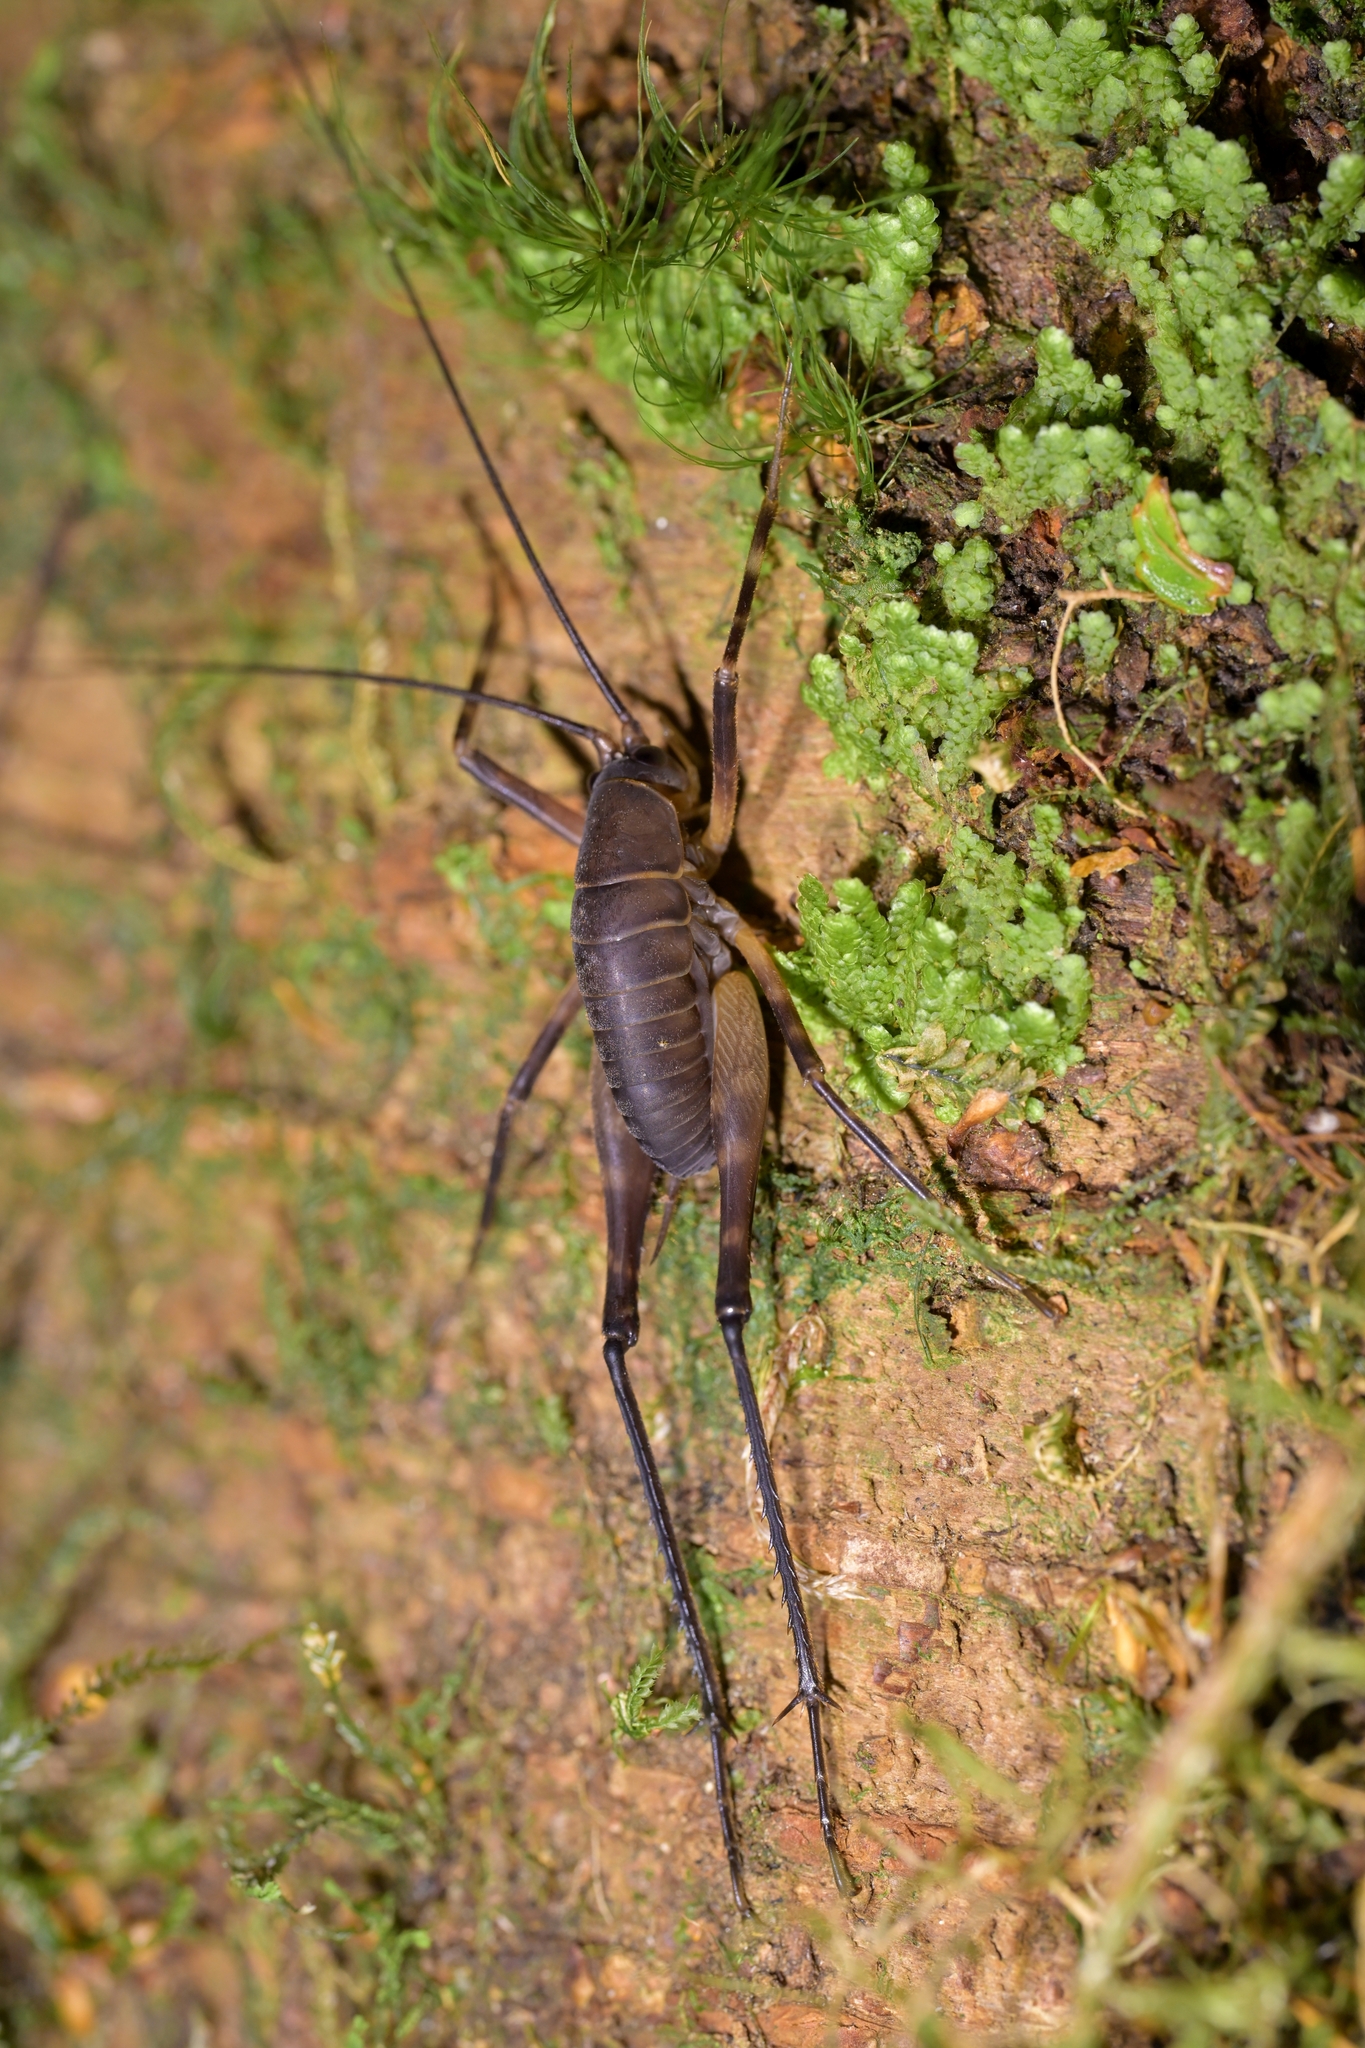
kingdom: Animalia
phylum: Arthropoda
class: Insecta
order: Orthoptera
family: Rhaphidophoridae
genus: Pachyrhamma
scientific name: Pachyrhamma longipes
